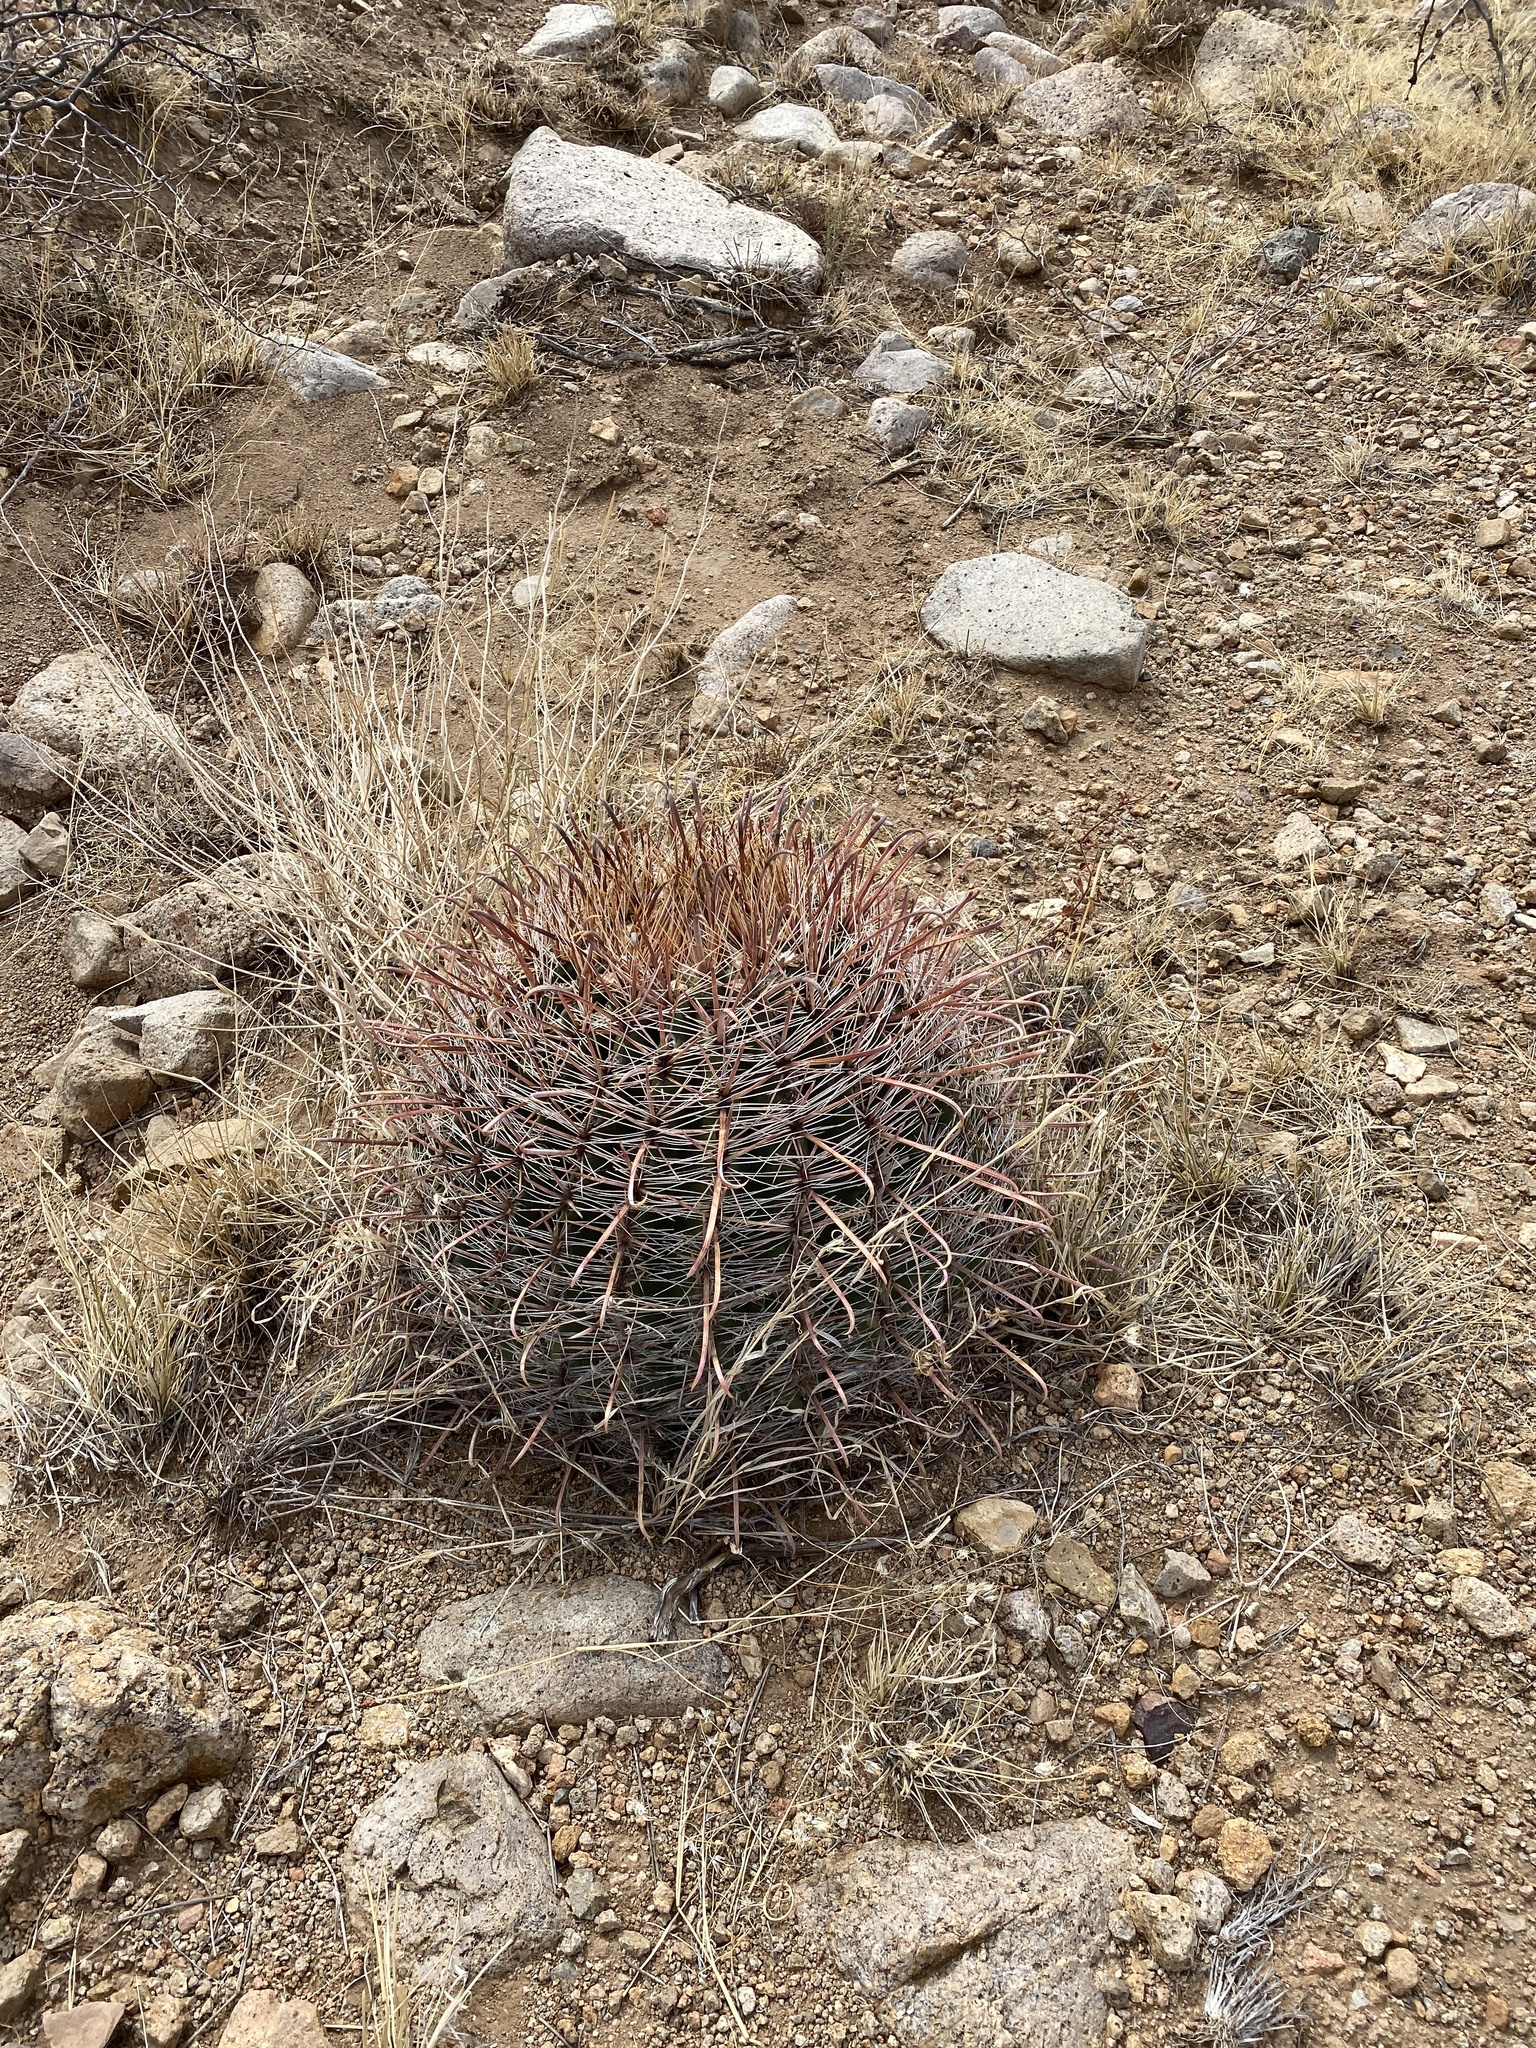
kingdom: Plantae
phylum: Tracheophyta
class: Magnoliopsida
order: Caryophyllales
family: Cactaceae
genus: Ferocactus
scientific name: Ferocactus wislizeni
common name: Candy barrel cactus
